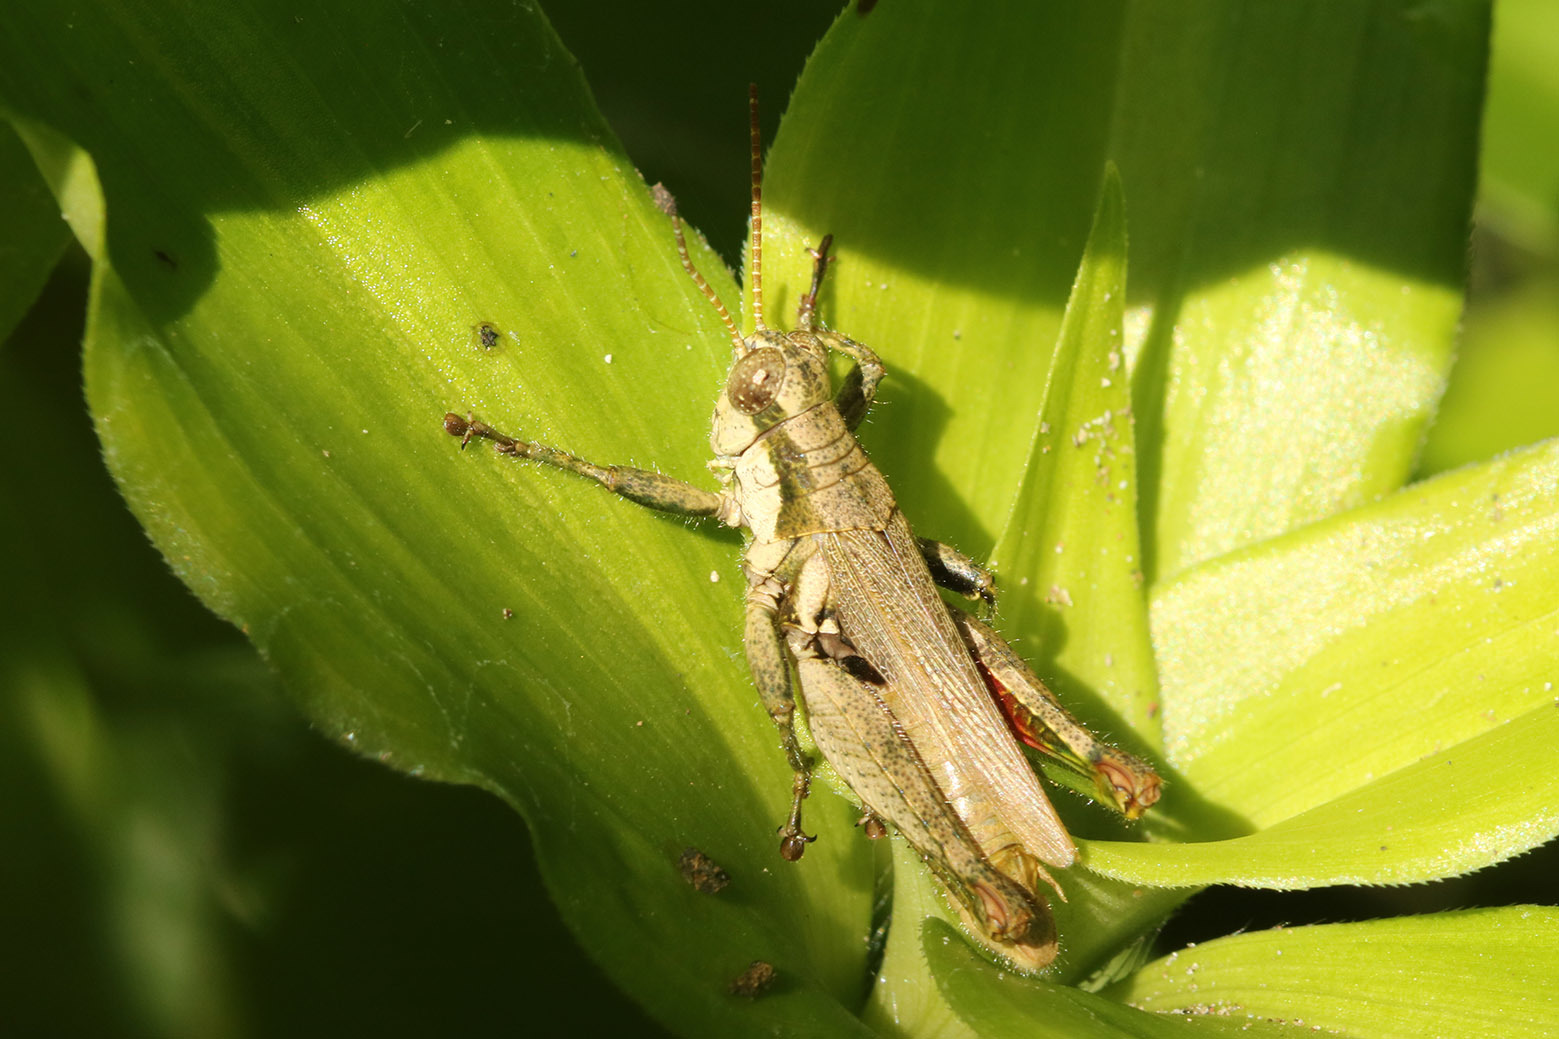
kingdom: Animalia
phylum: Arthropoda
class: Insecta
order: Orthoptera
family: Acrididae
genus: Ronderosia
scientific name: Ronderosia bergii
